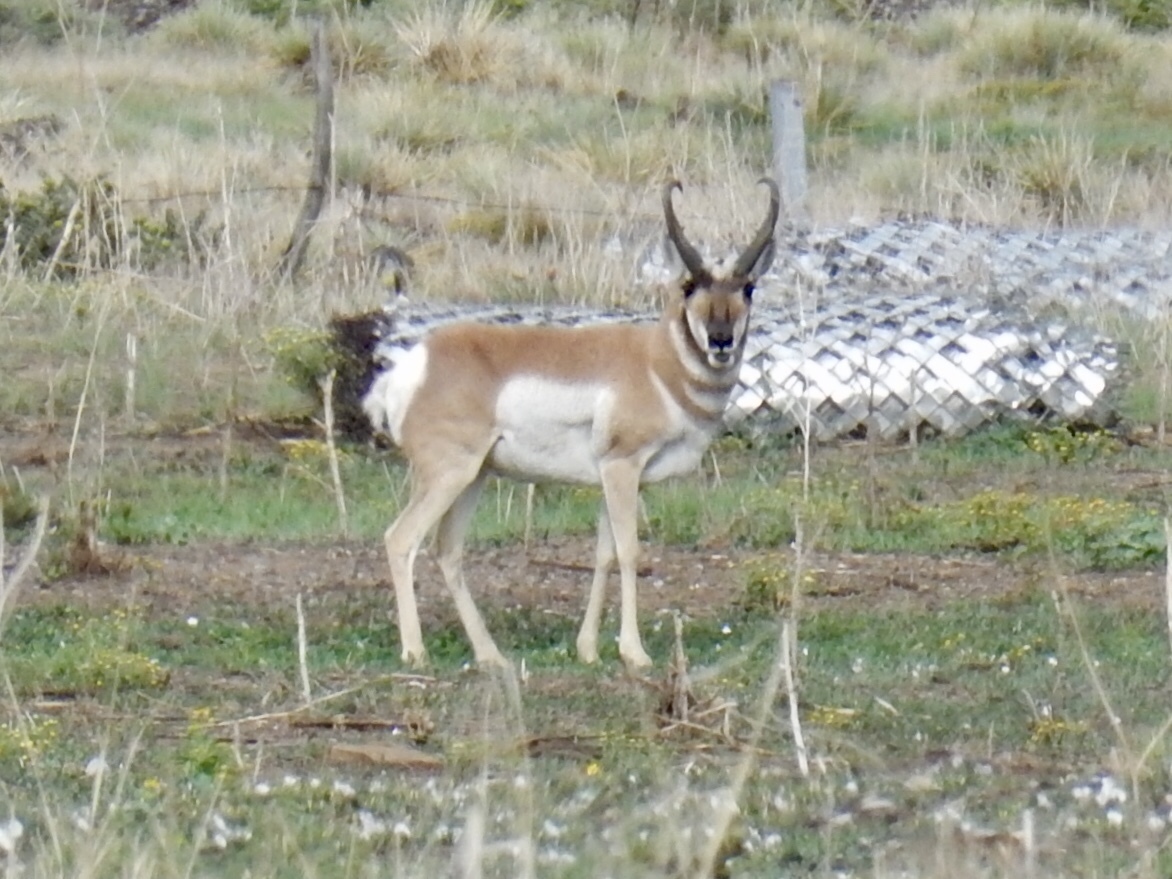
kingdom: Animalia
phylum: Chordata
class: Mammalia
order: Artiodactyla
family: Antilocapridae
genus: Antilocapra
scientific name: Antilocapra americana
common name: Pronghorn
